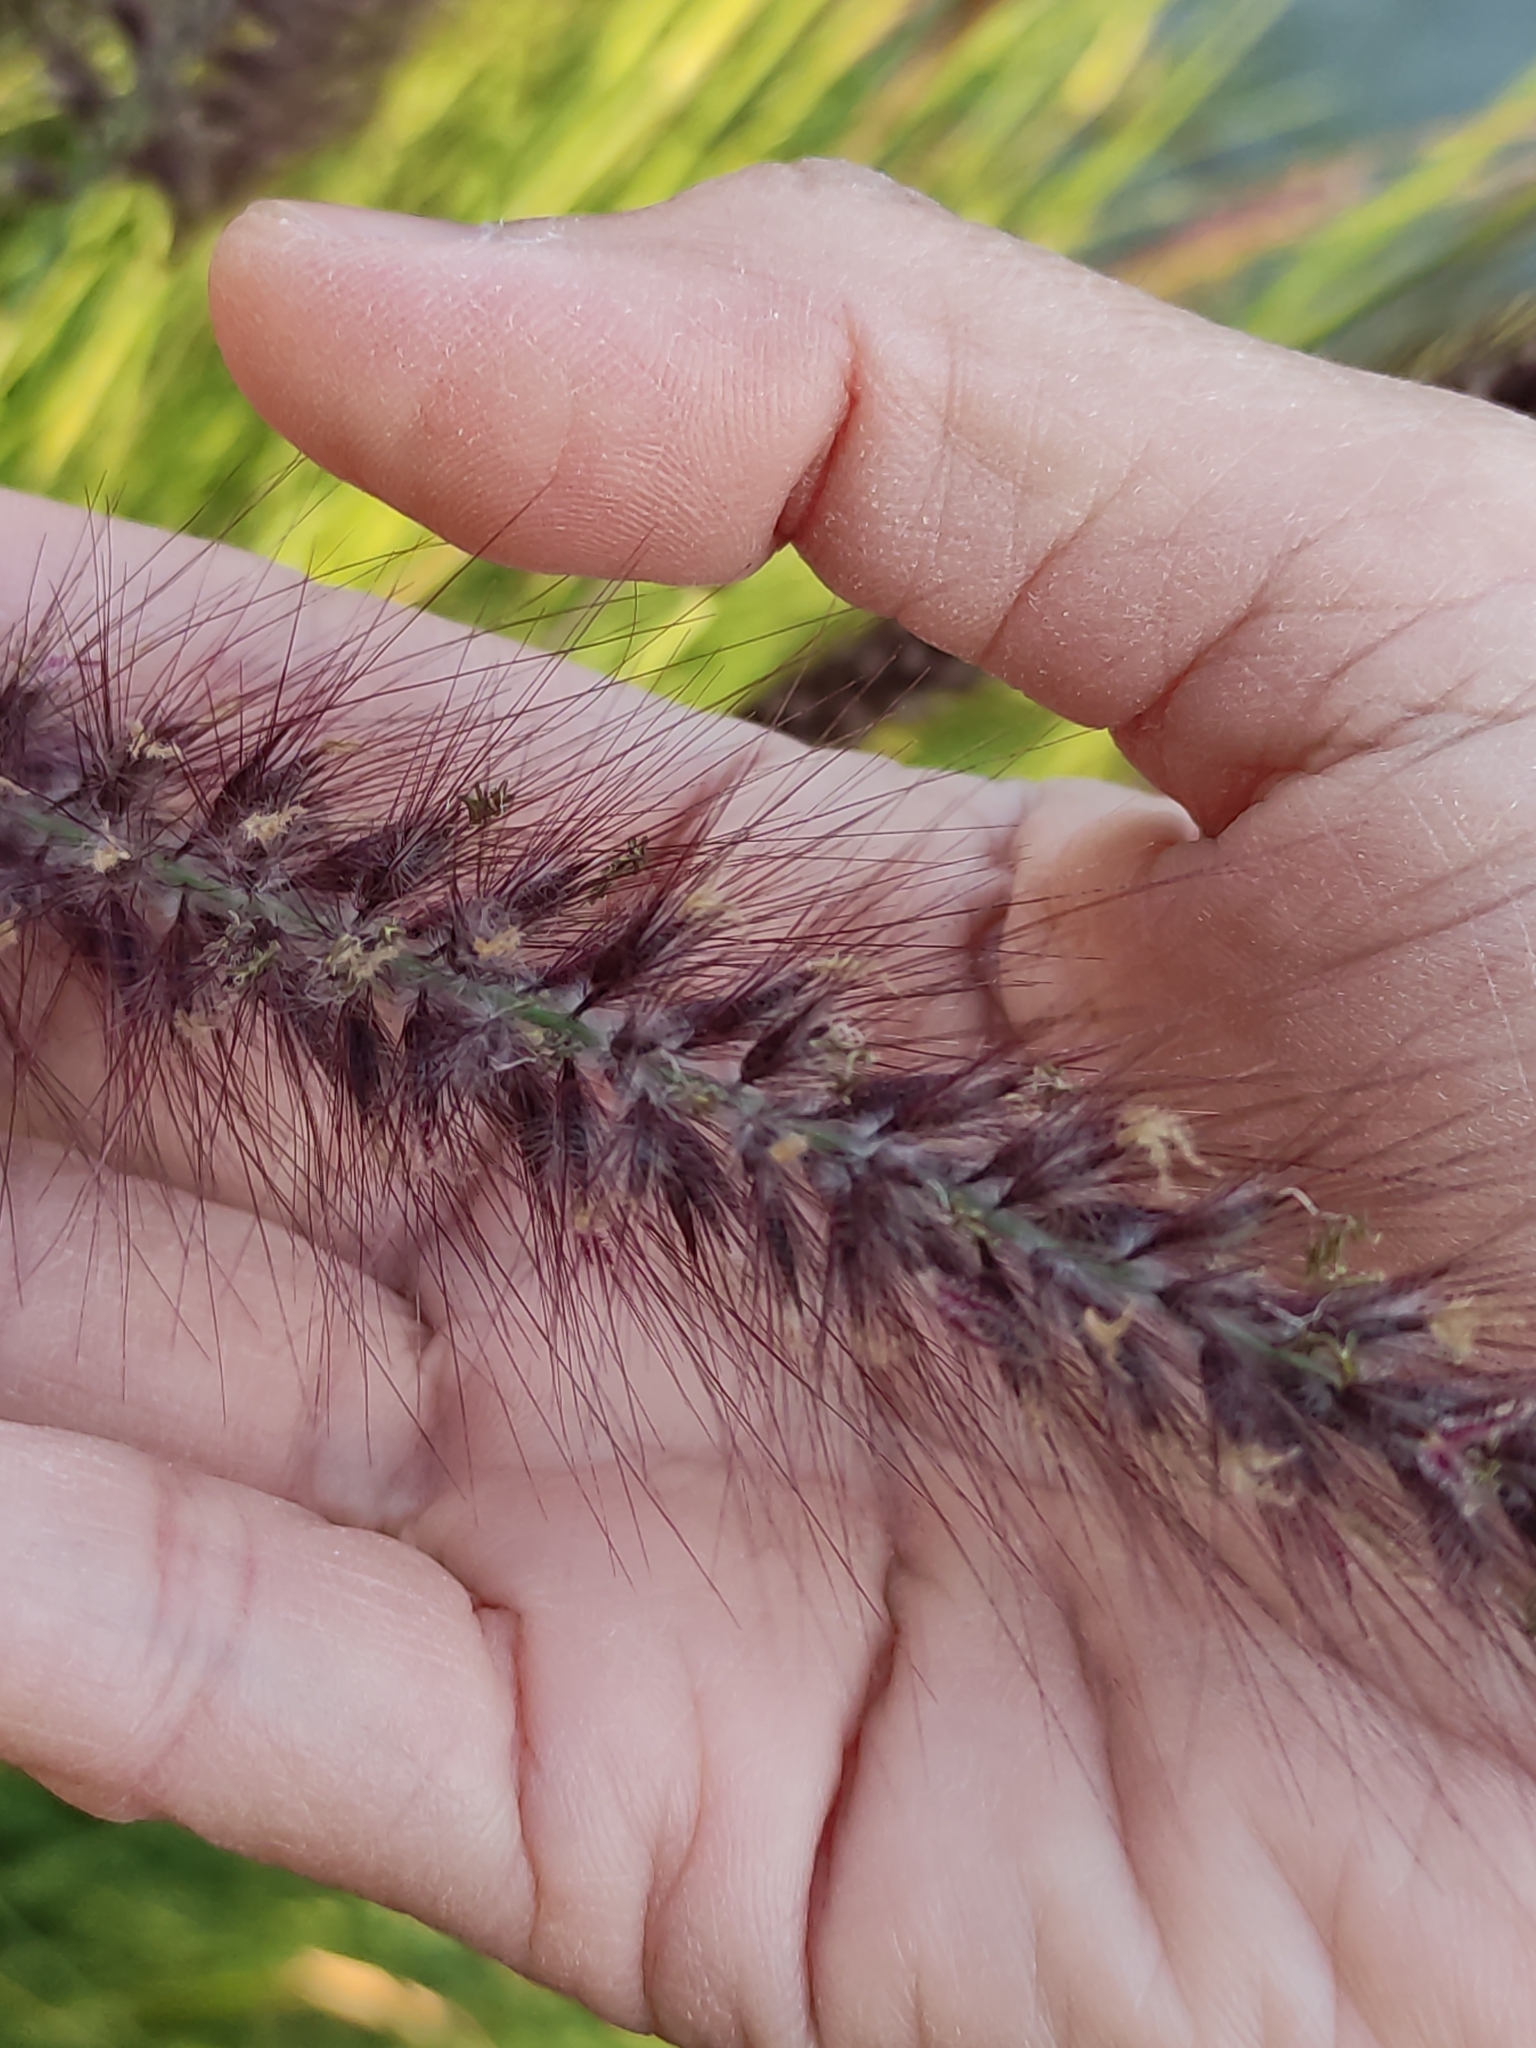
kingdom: Plantae
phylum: Tracheophyta
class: Liliopsida
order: Poales
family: Poaceae
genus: Cenchrus
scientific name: Cenchrus setaceus
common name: Crimson fountaingrass
